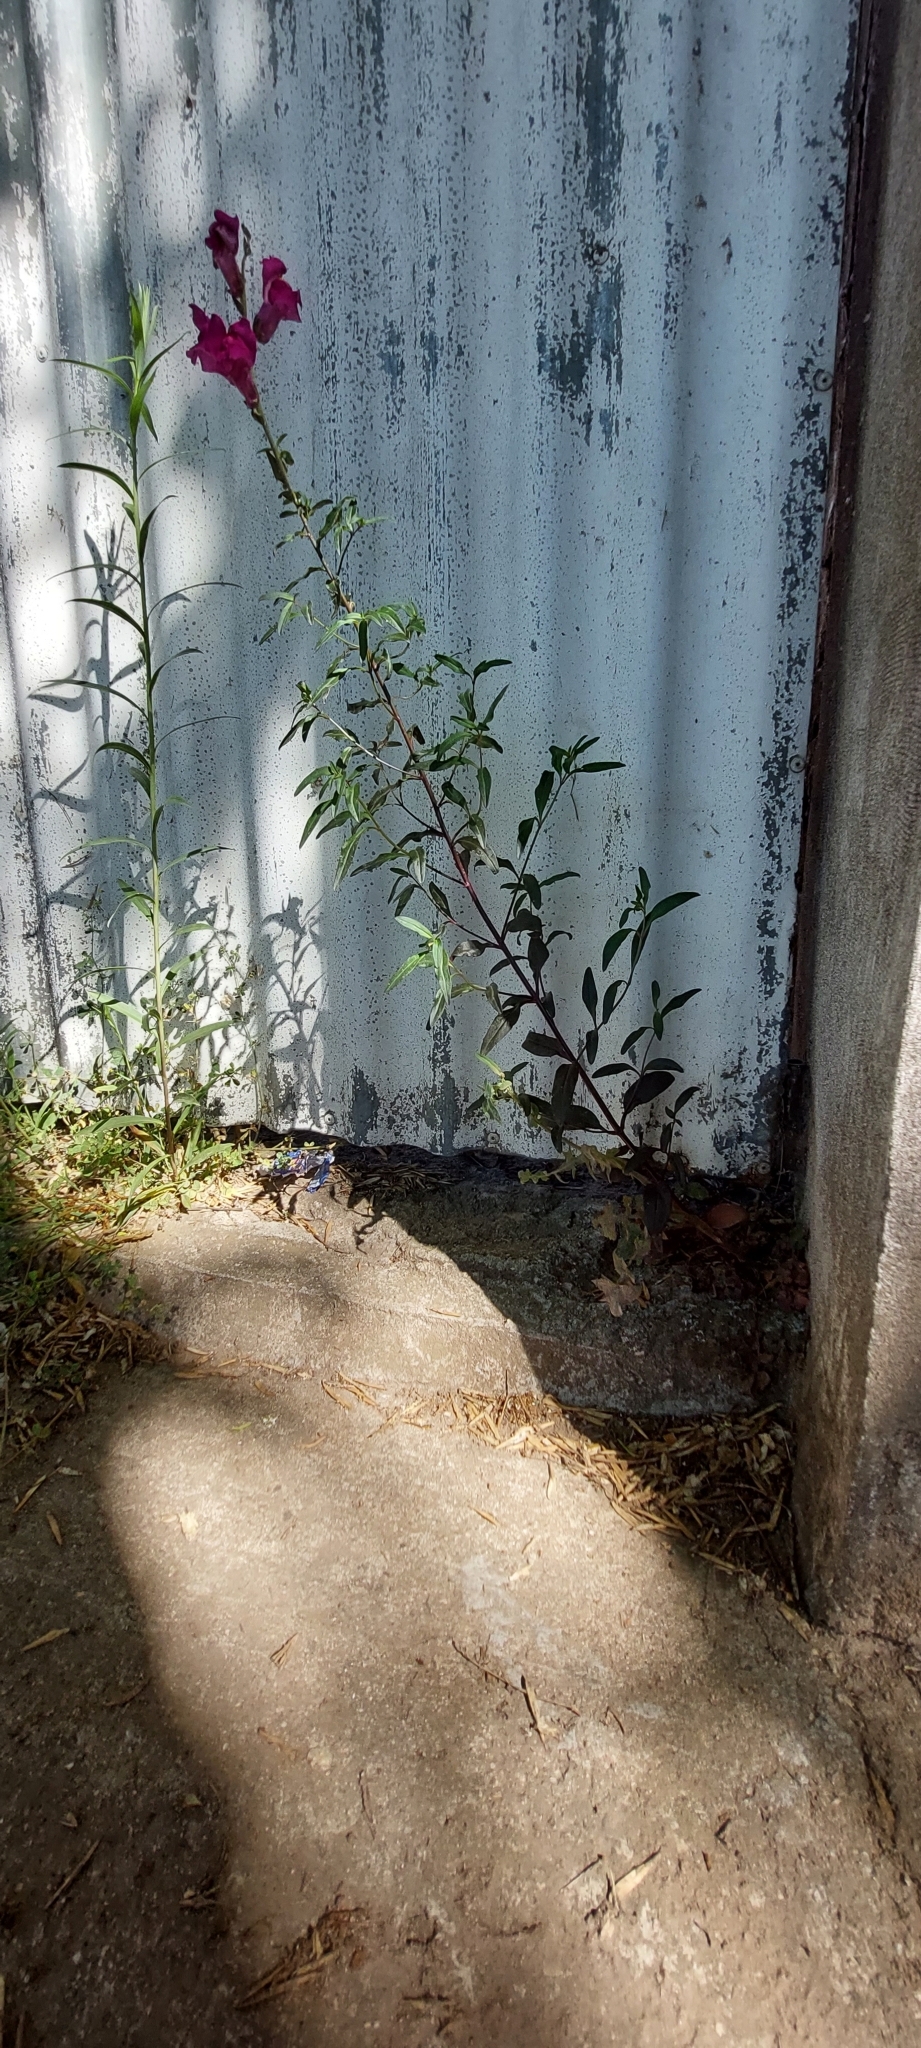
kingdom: Plantae
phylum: Tracheophyta
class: Magnoliopsida
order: Lamiales
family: Plantaginaceae
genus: Antirrhinum
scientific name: Antirrhinum majus
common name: Snapdragon
